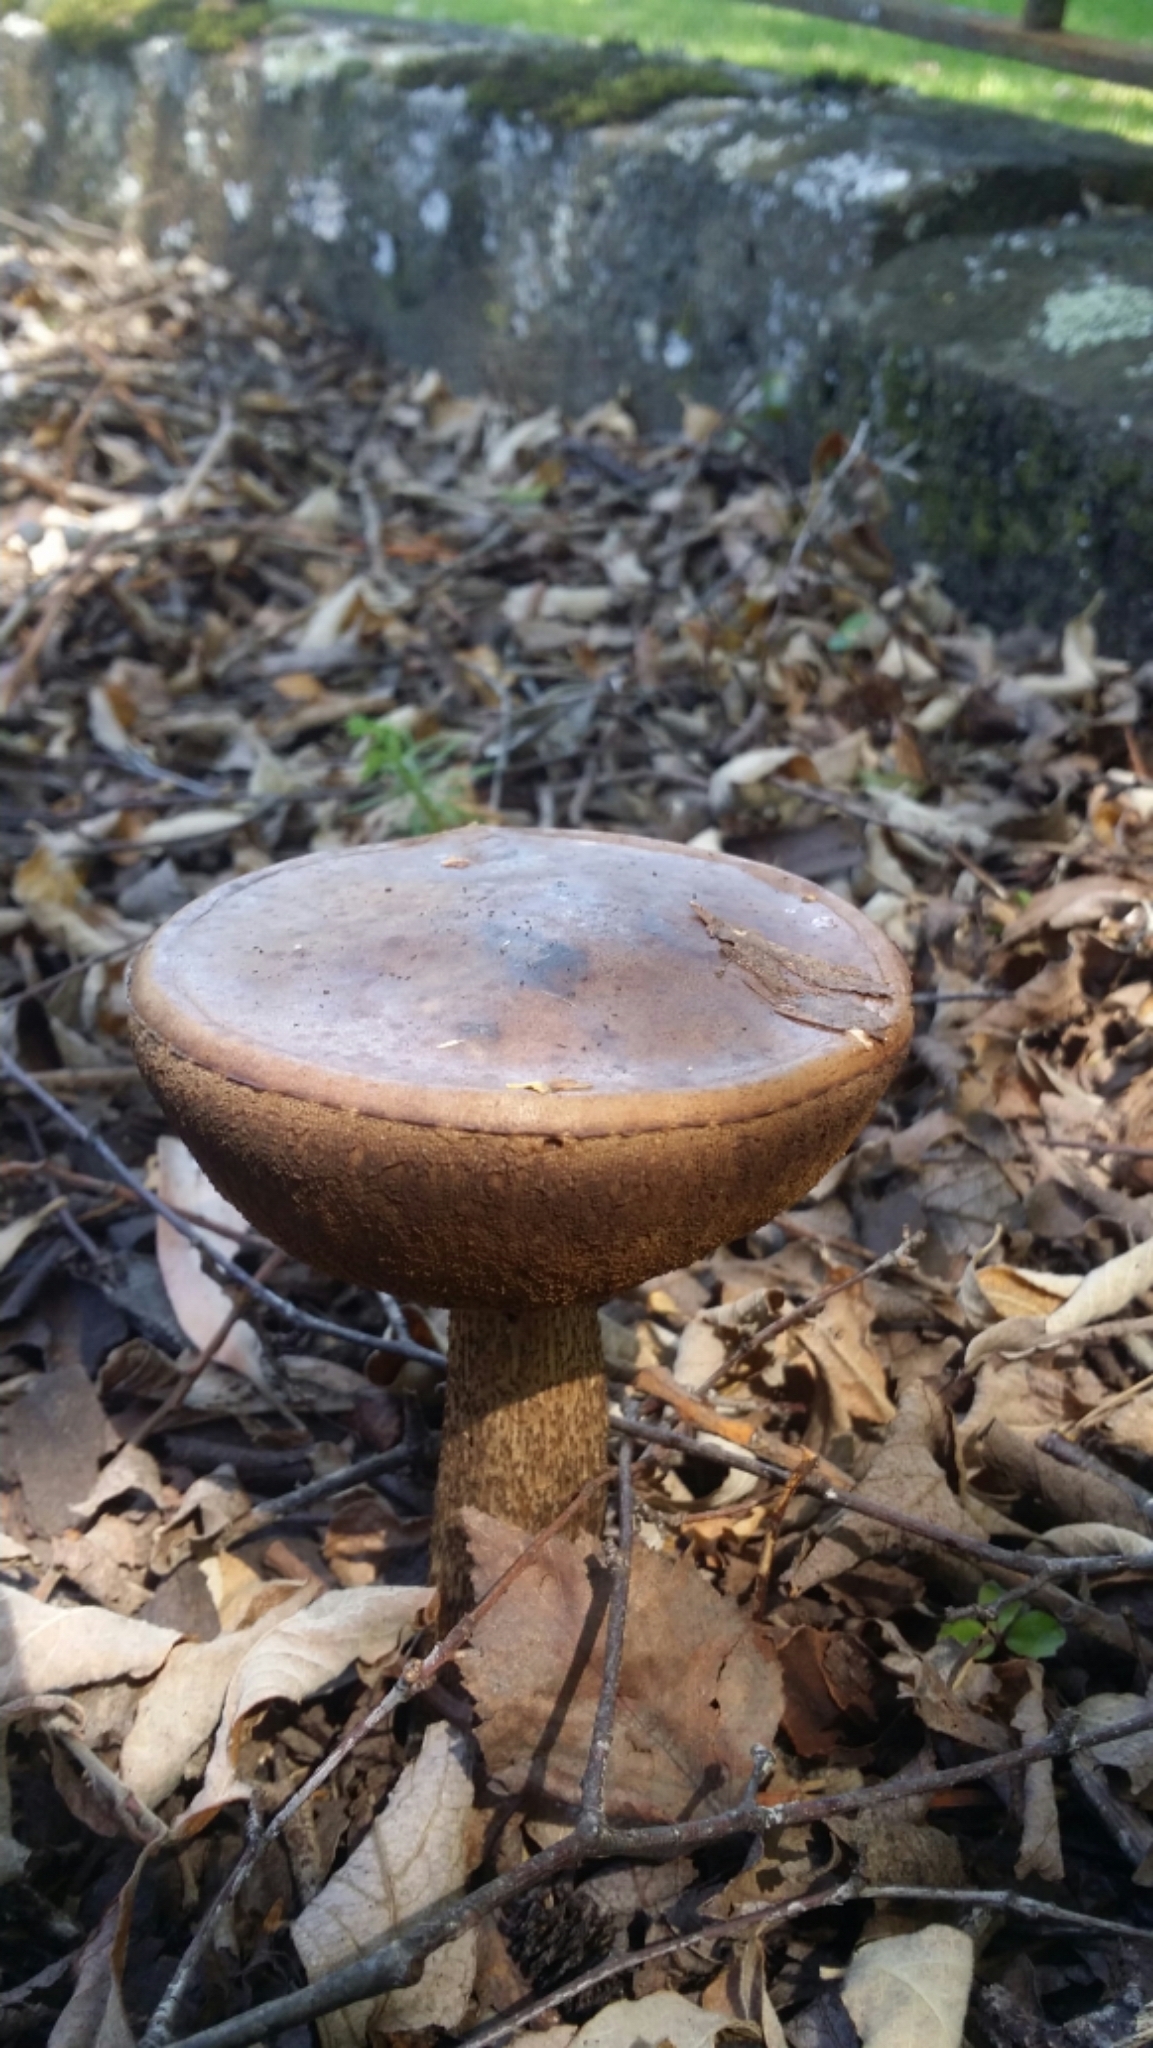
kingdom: Fungi
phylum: Basidiomycota
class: Agaricomycetes
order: Boletales
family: Boletaceae
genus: Leccinum
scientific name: Leccinum scabrum
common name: Blushing bolete
